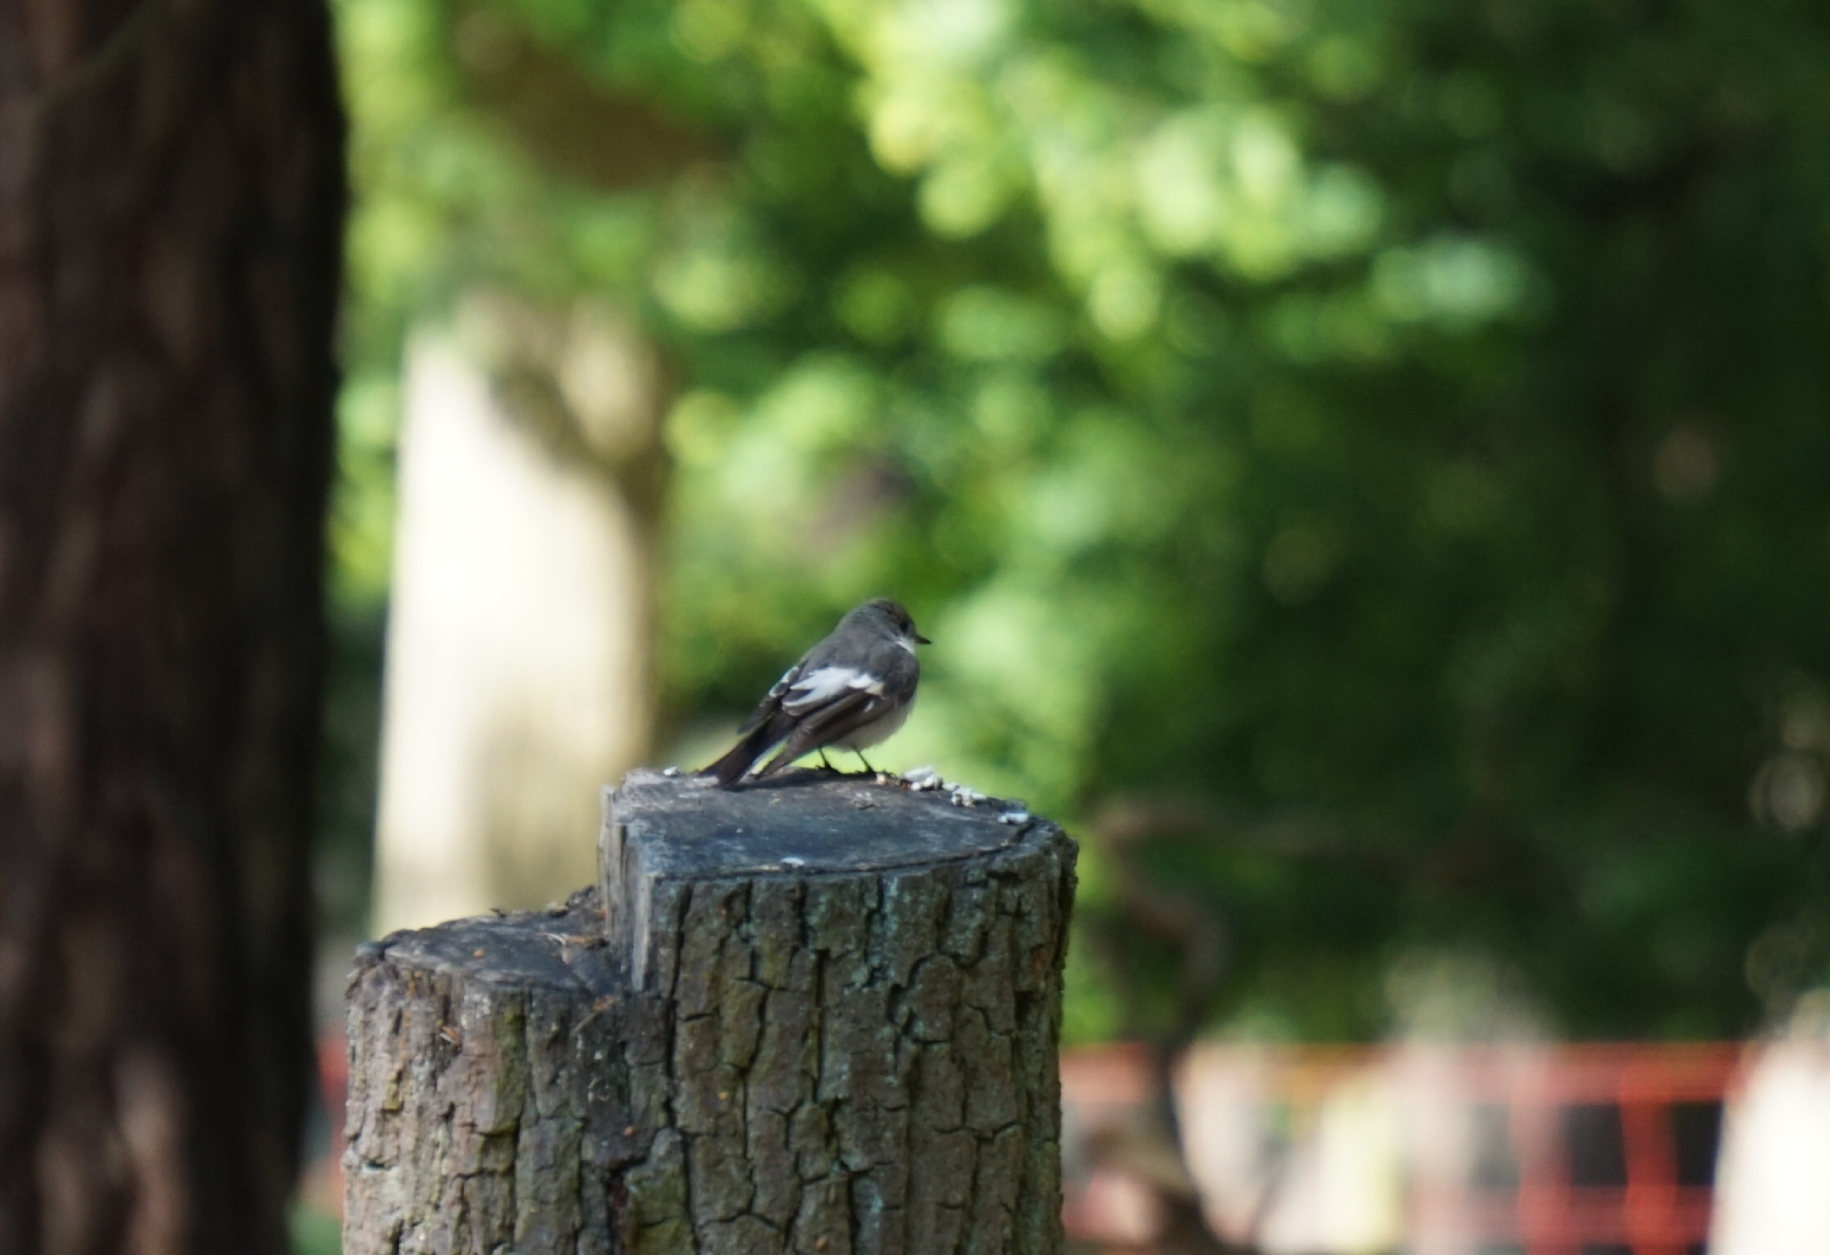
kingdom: Animalia
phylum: Chordata
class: Aves
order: Passeriformes
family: Muscicapidae
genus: Ficedula
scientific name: Ficedula hypoleuca
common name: European pied flycatcher
